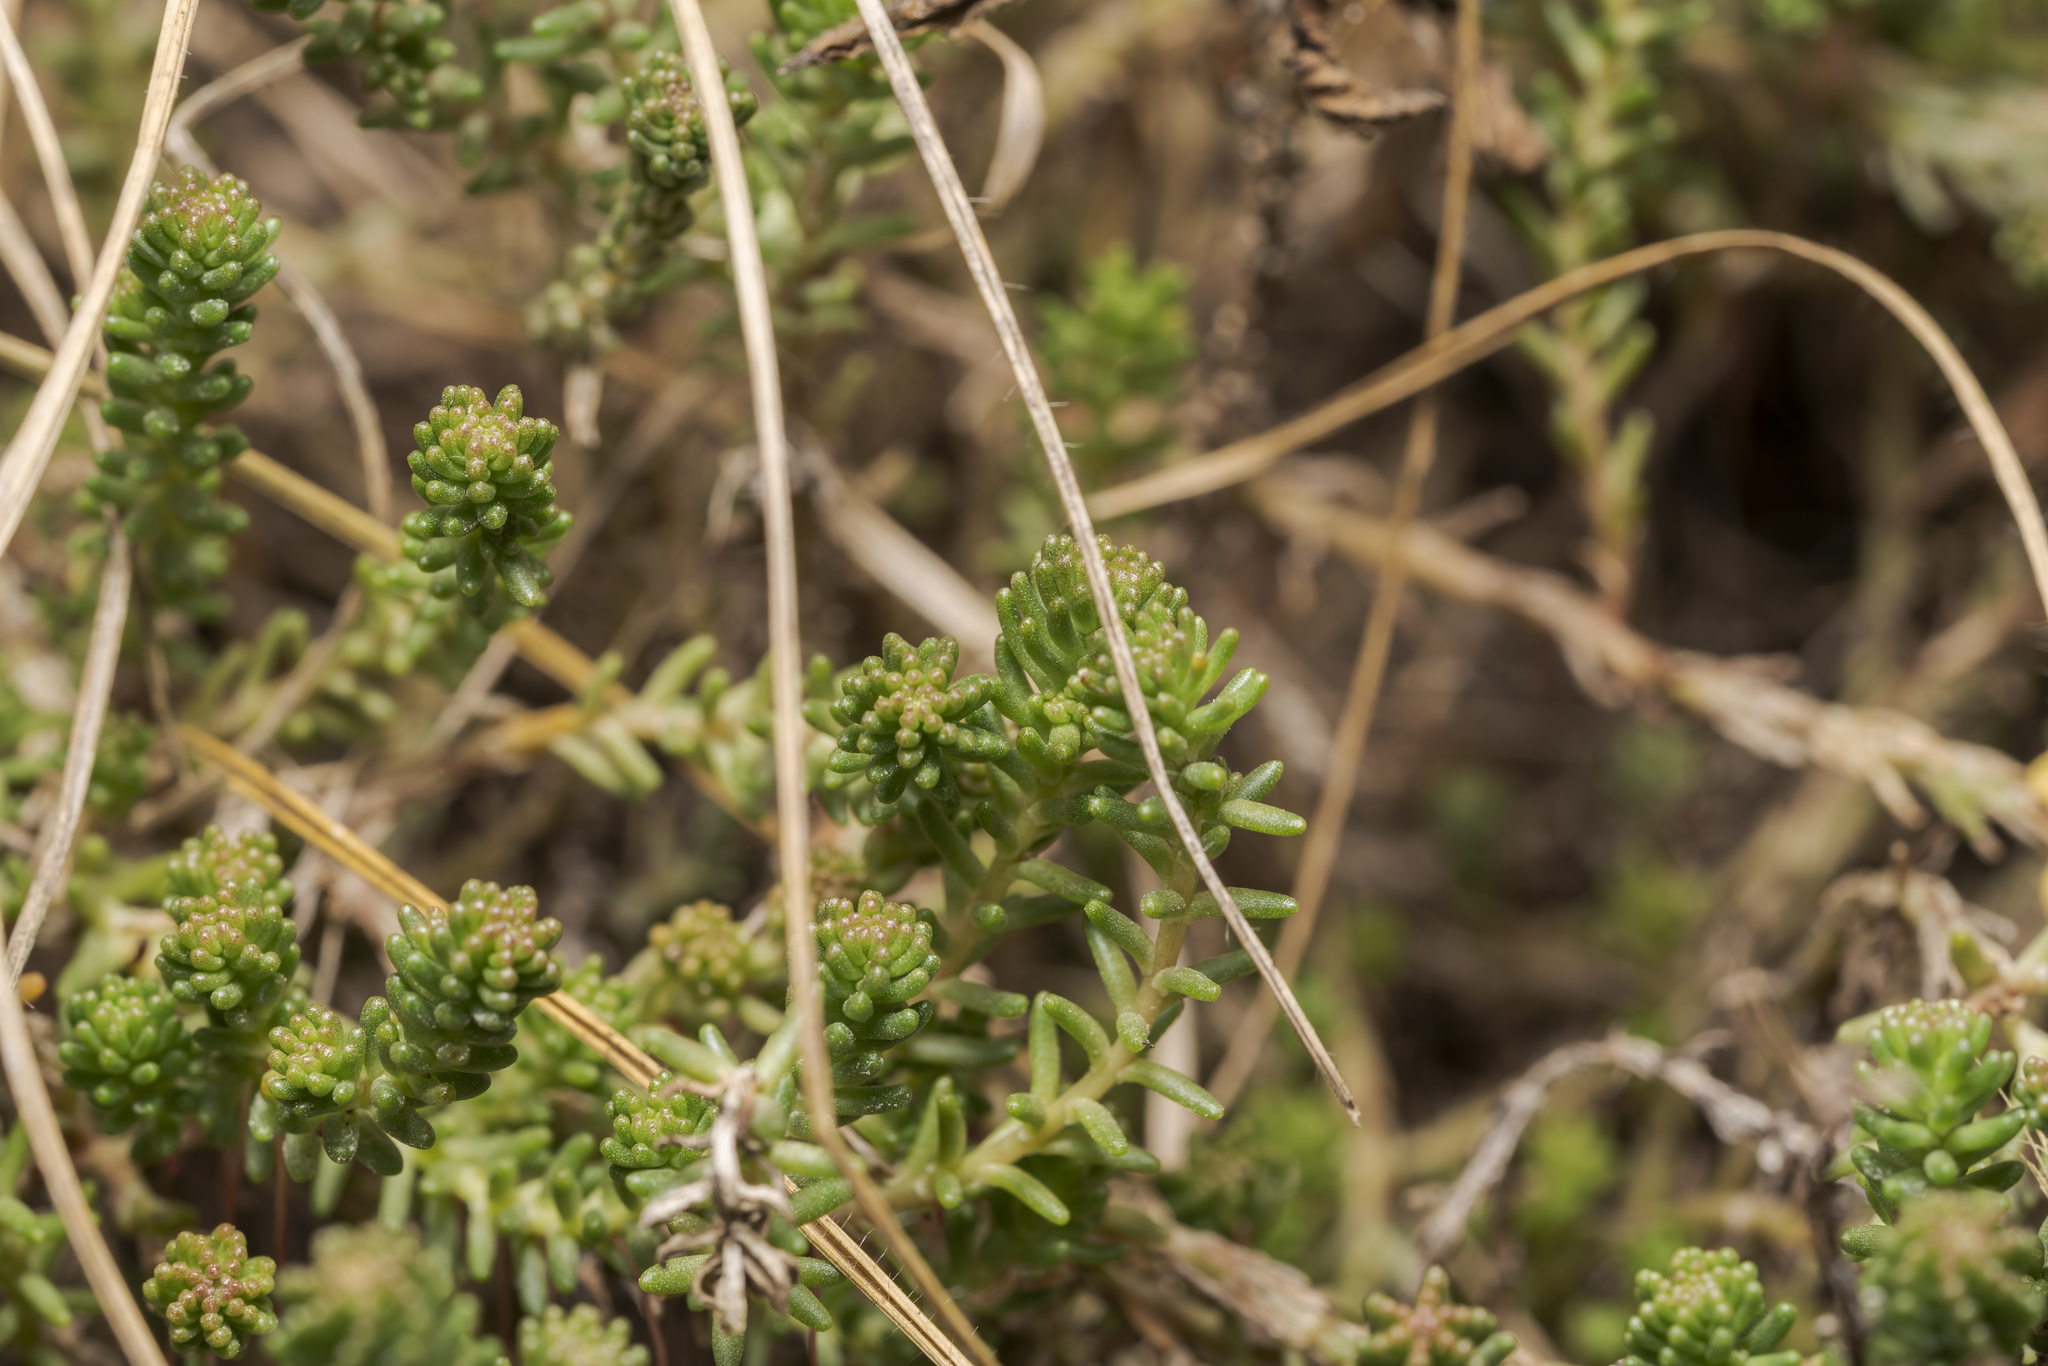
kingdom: Plantae
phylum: Tracheophyta
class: Magnoliopsida
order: Saxifragales
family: Crassulaceae
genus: Sedum
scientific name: Sedum sexangulare
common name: Tasteless stonecrop
